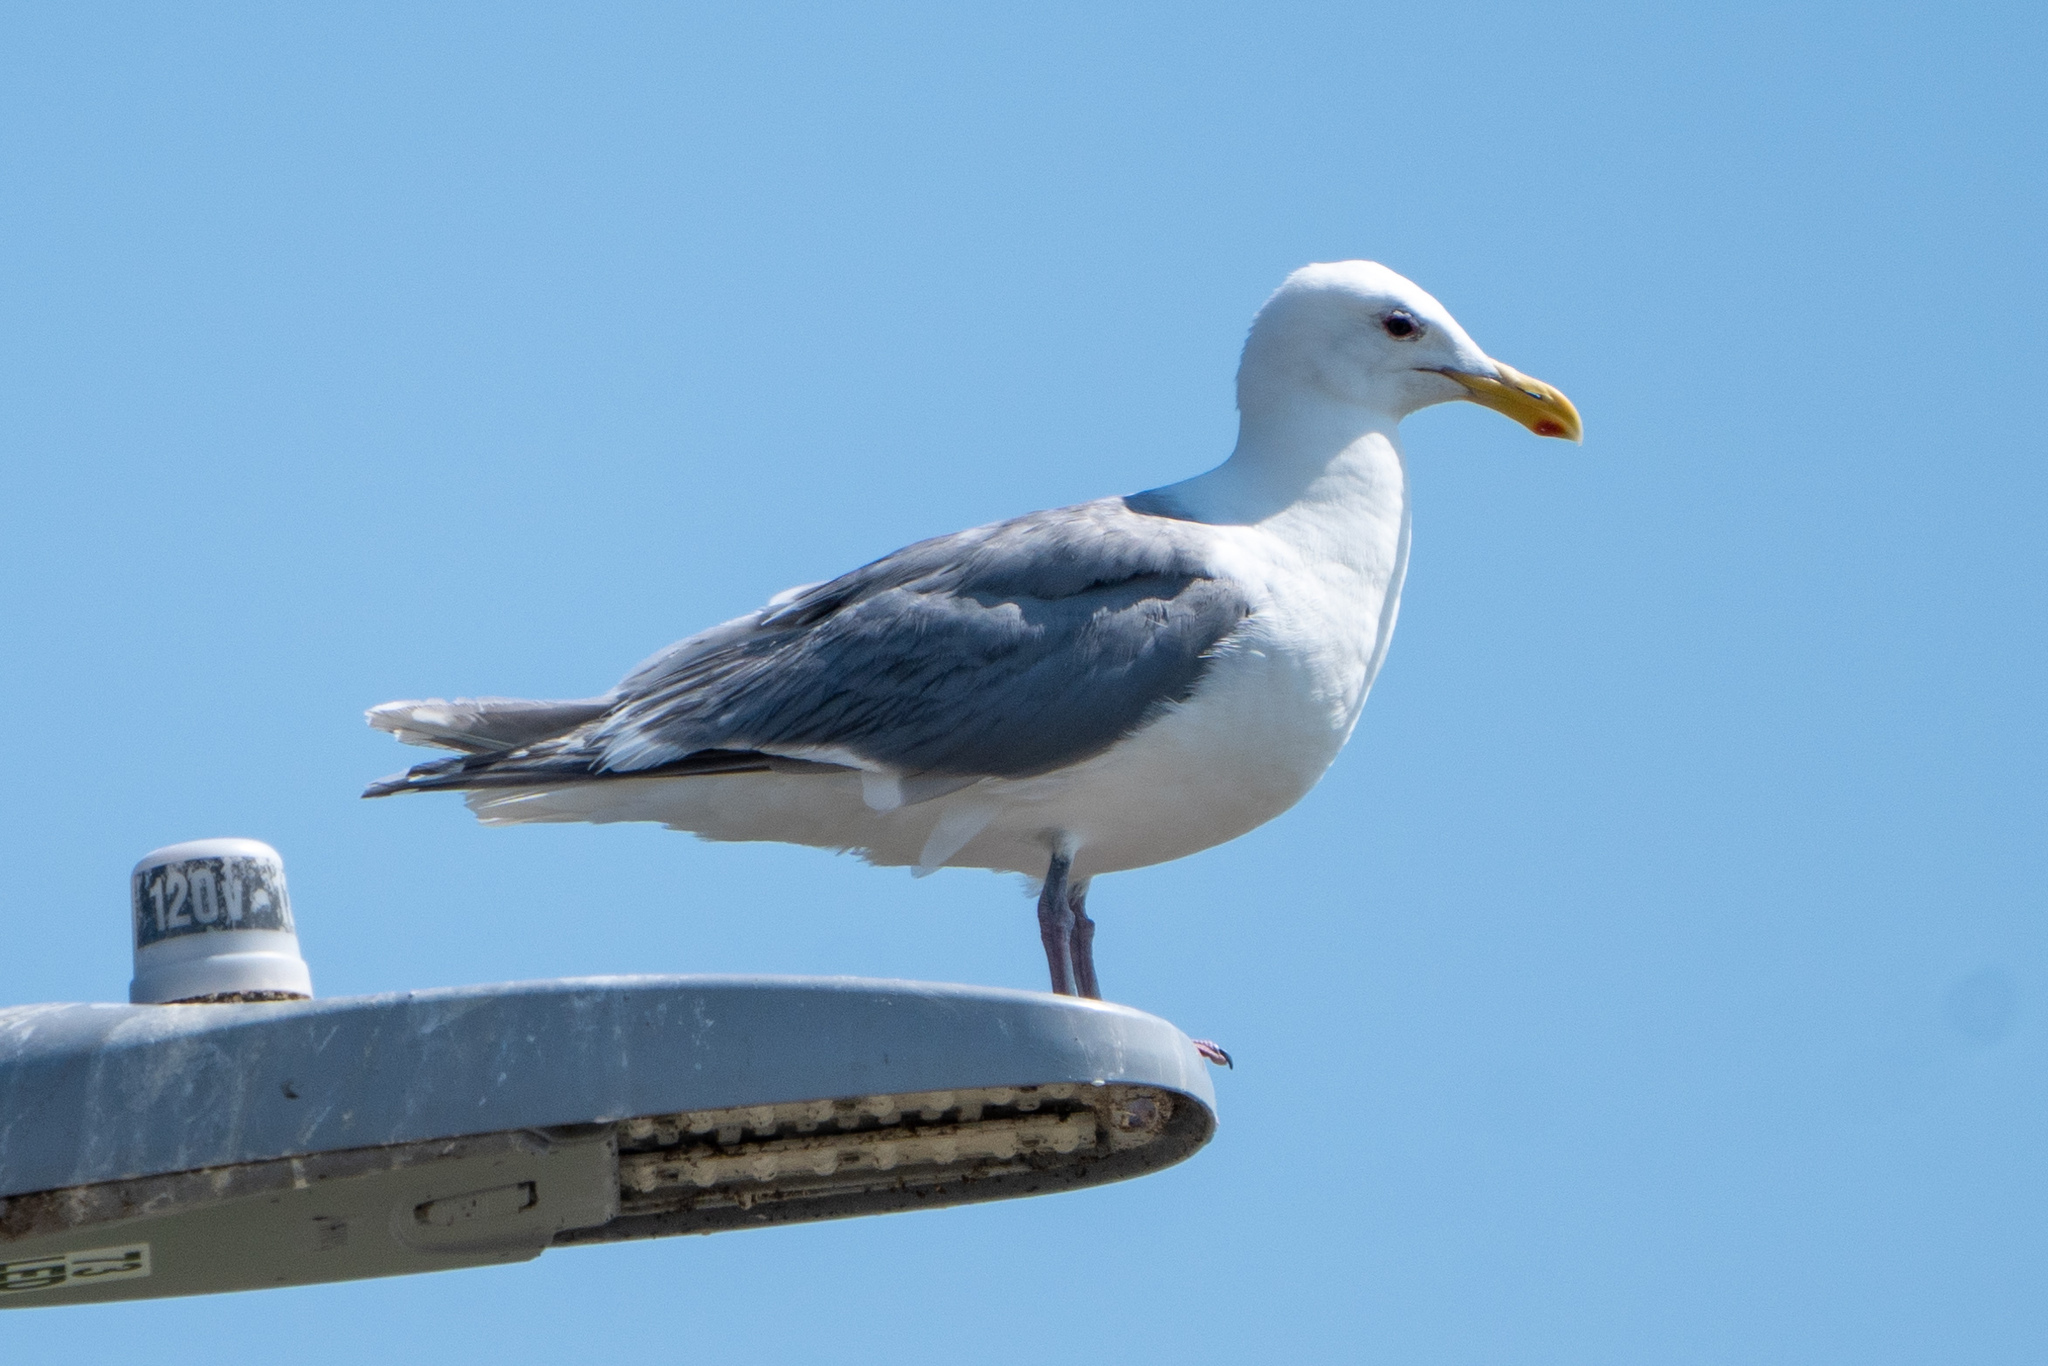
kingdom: Animalia
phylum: Chordata
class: Aves
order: Charadriiformes
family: Laridae
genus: Larus
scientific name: Larus glaucescens
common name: Glaucous-winged gull
